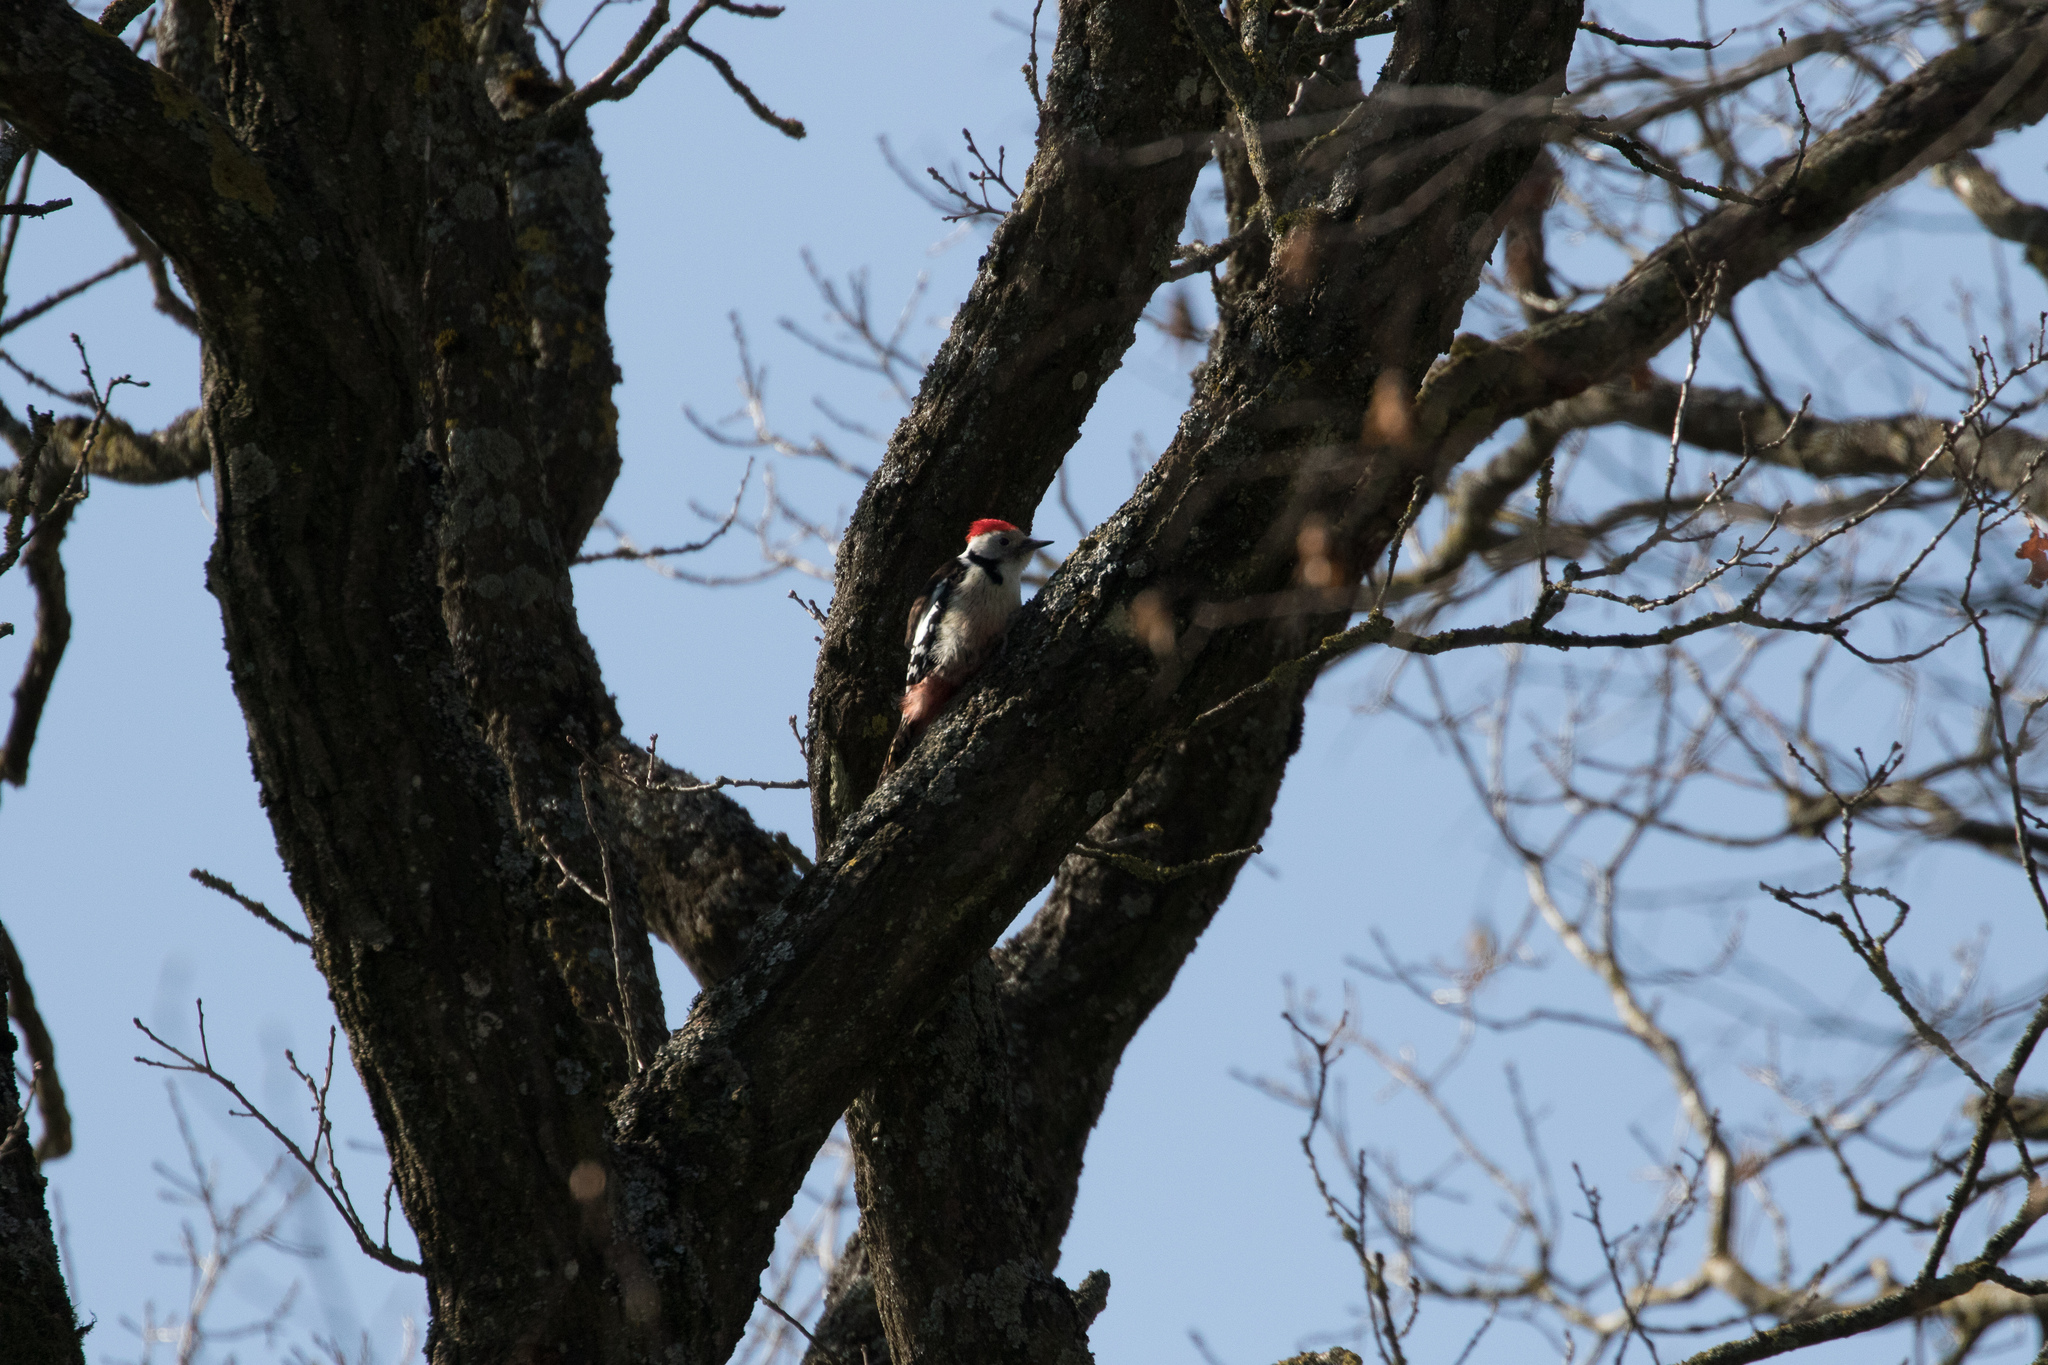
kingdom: Animalia
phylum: Chordata
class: Aves
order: Piciformes
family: Picidae
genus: Dendrocoptes
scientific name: Dendrocoptes medius
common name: Middle spotted woodpecker
